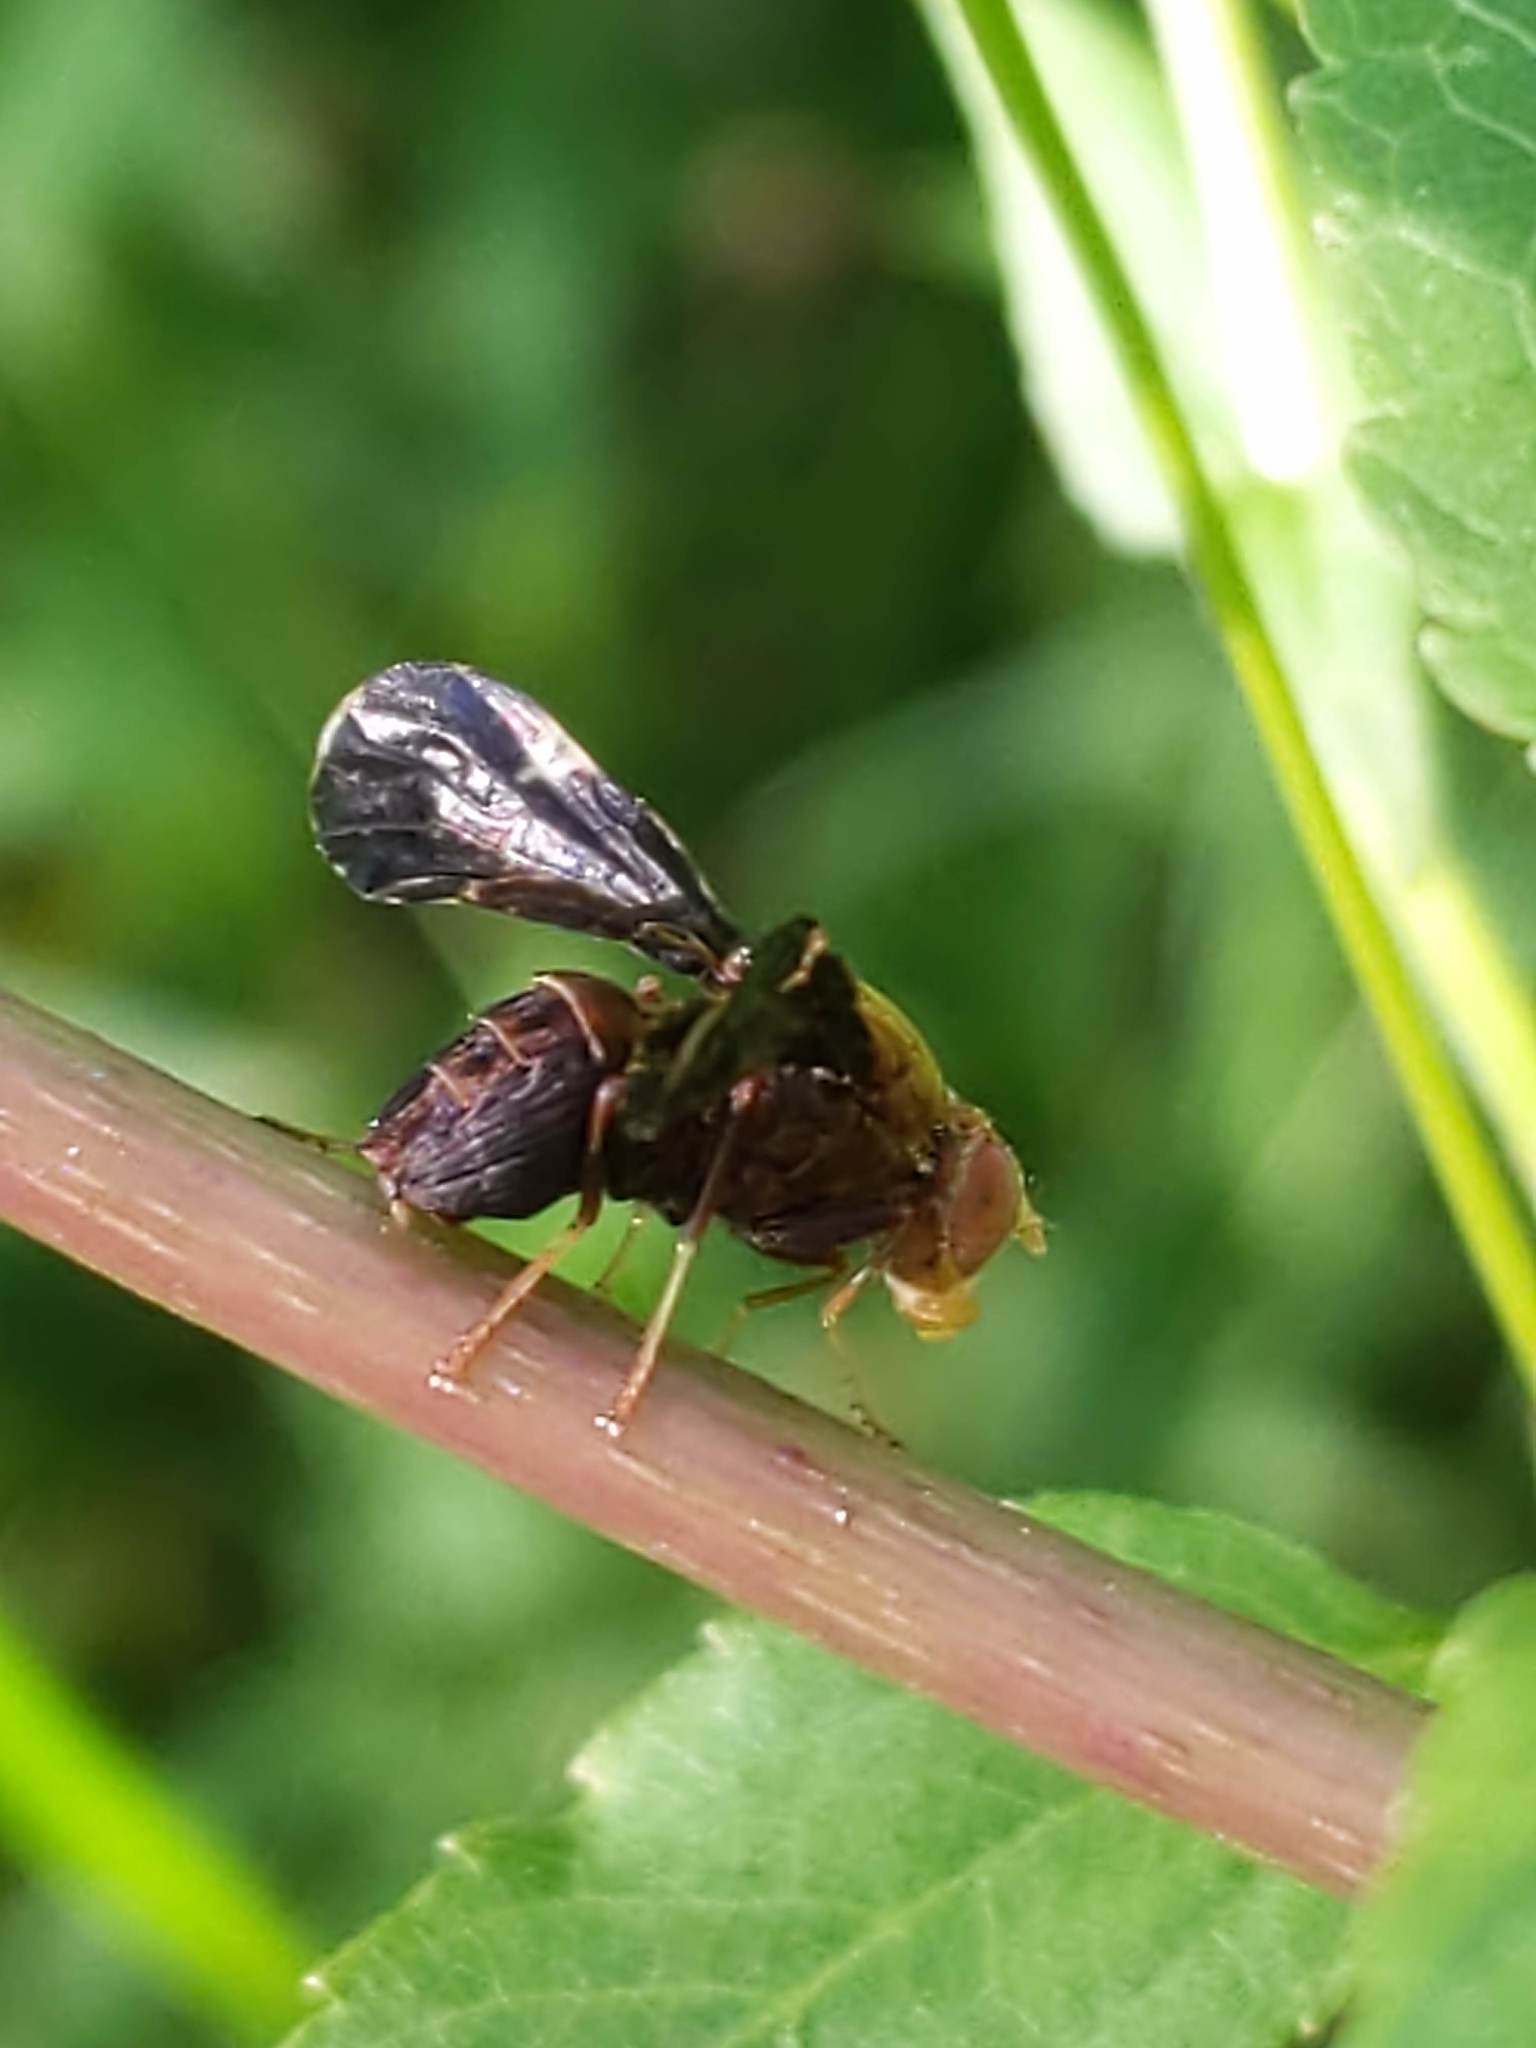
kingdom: Animalia
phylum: Arthropoda
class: Insecta
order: Diptera
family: Tephritidae
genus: Eurosta
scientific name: Eurosta comma
